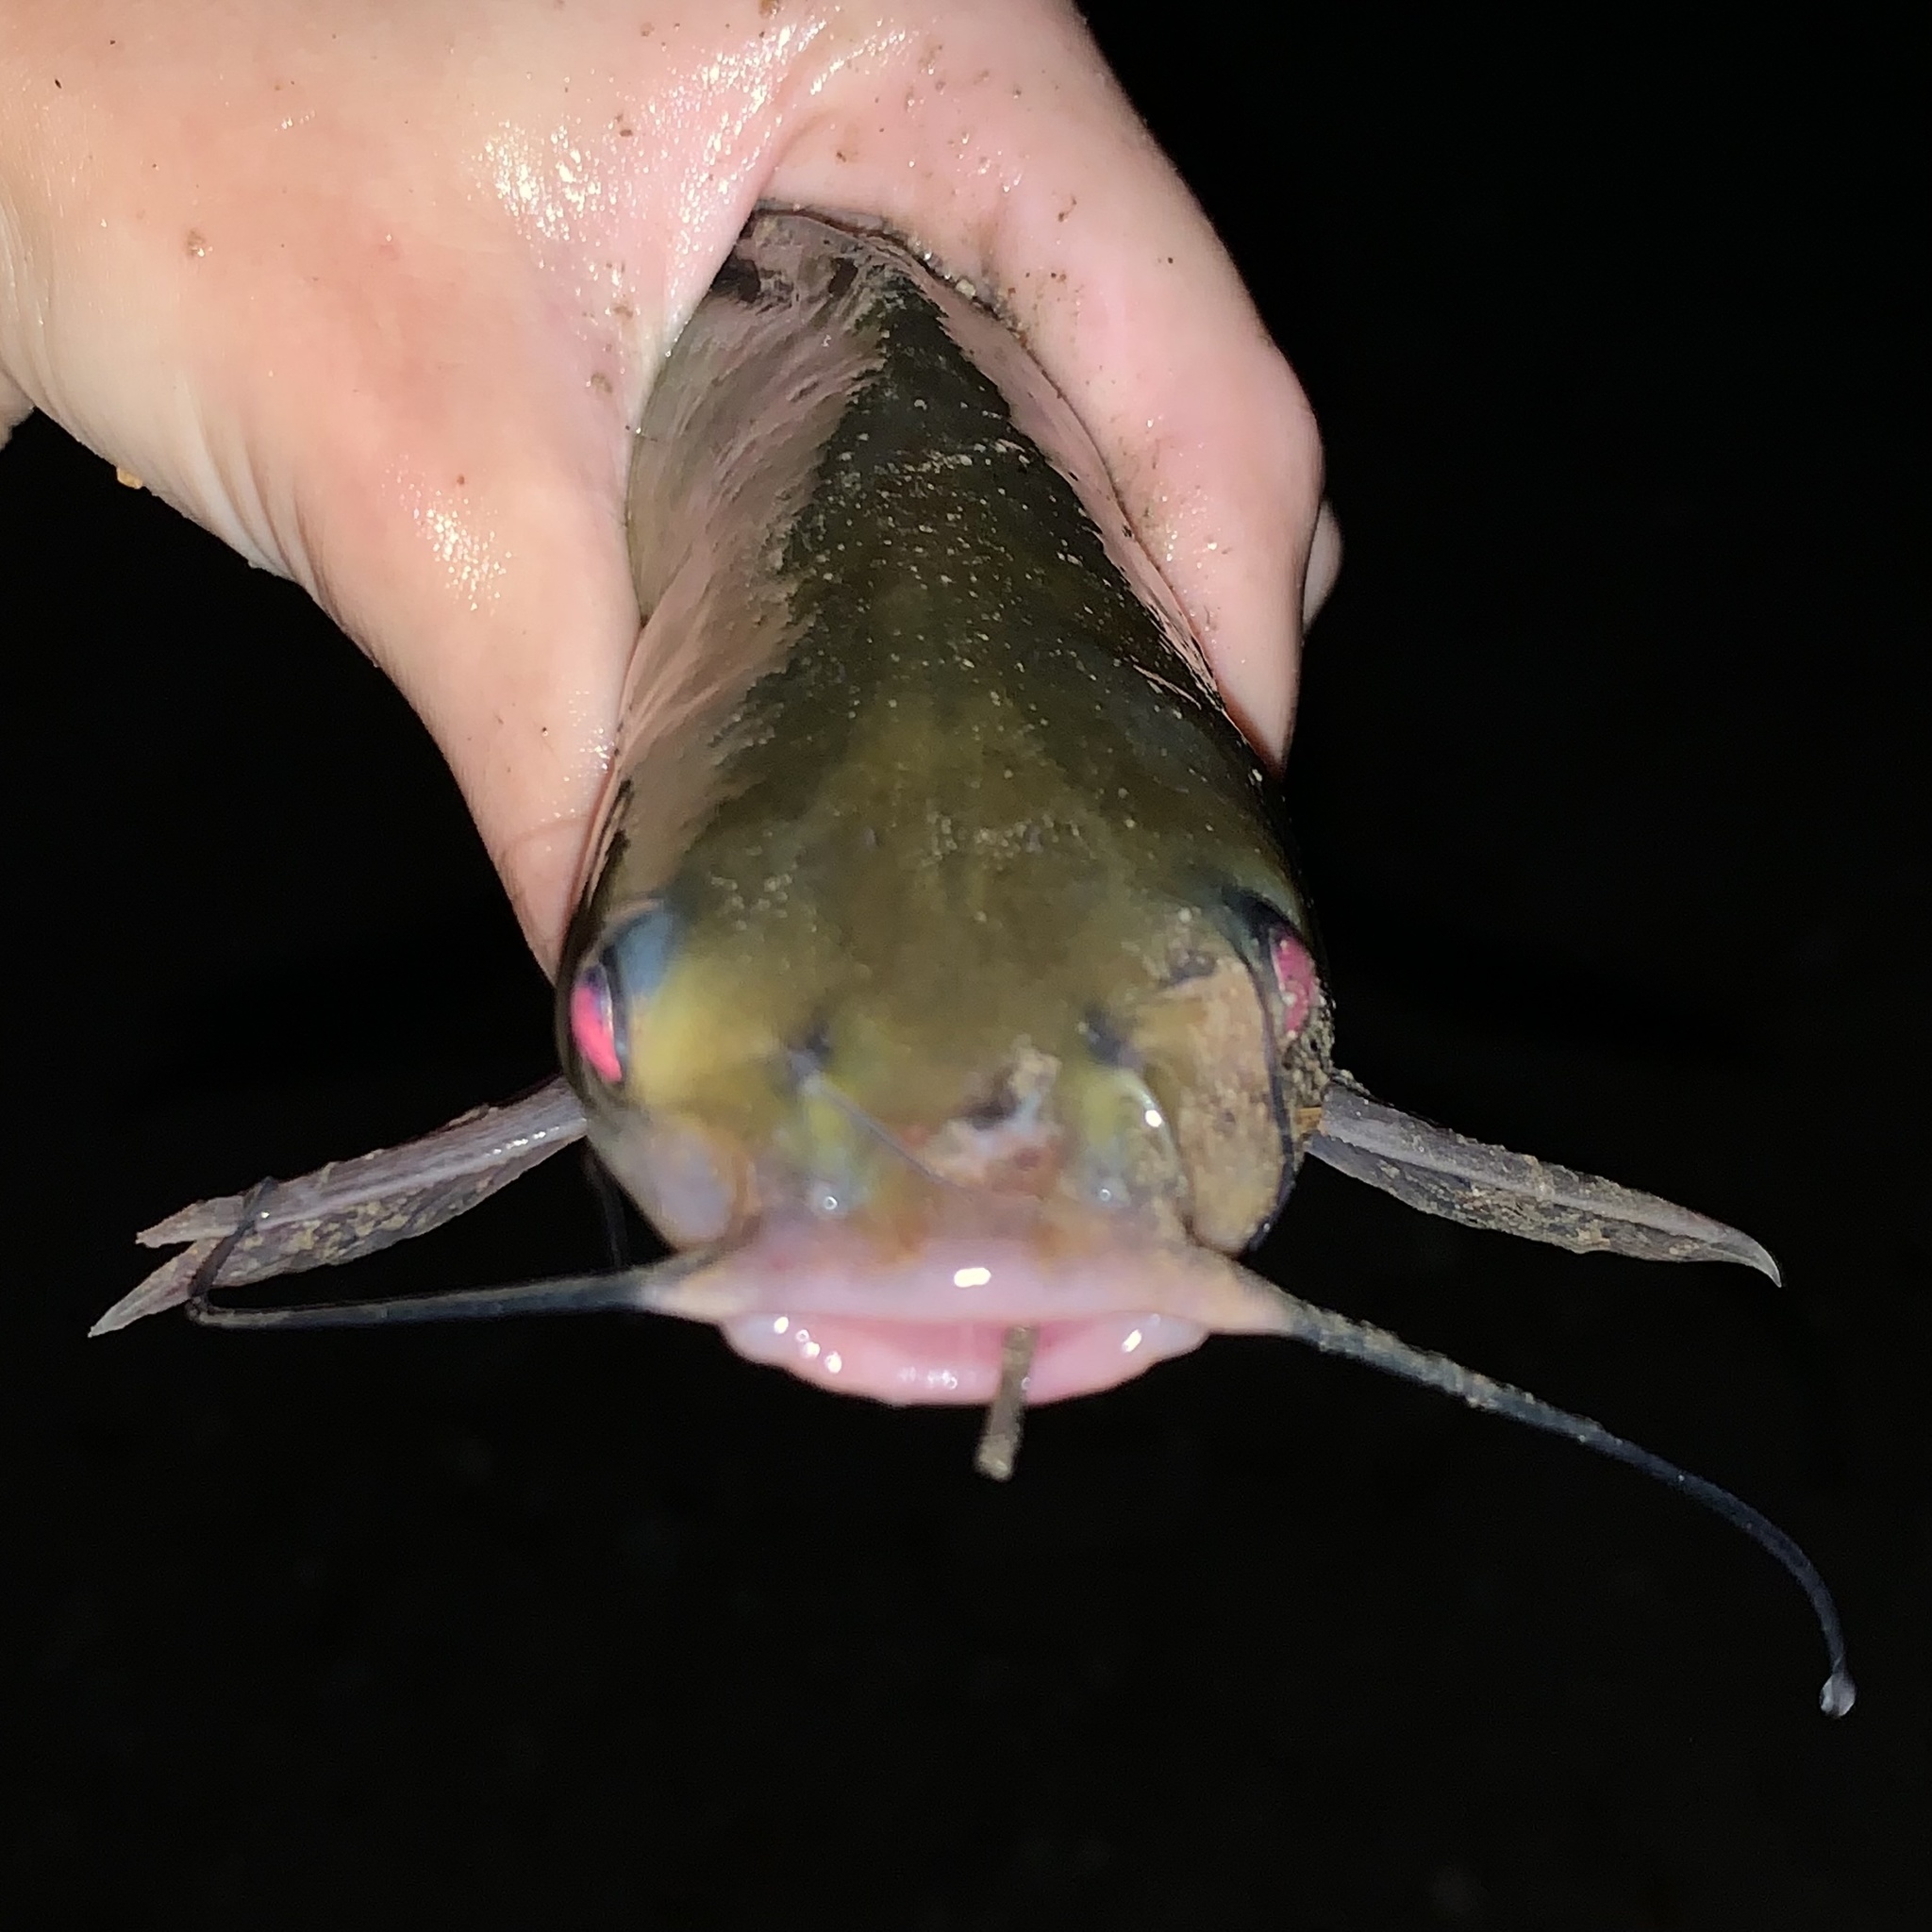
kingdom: Animalia
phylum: Chordata
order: Siluriformes
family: Ictaluridae
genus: Ictalurus
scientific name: Ictalurus punctatus
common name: Channel catfish
